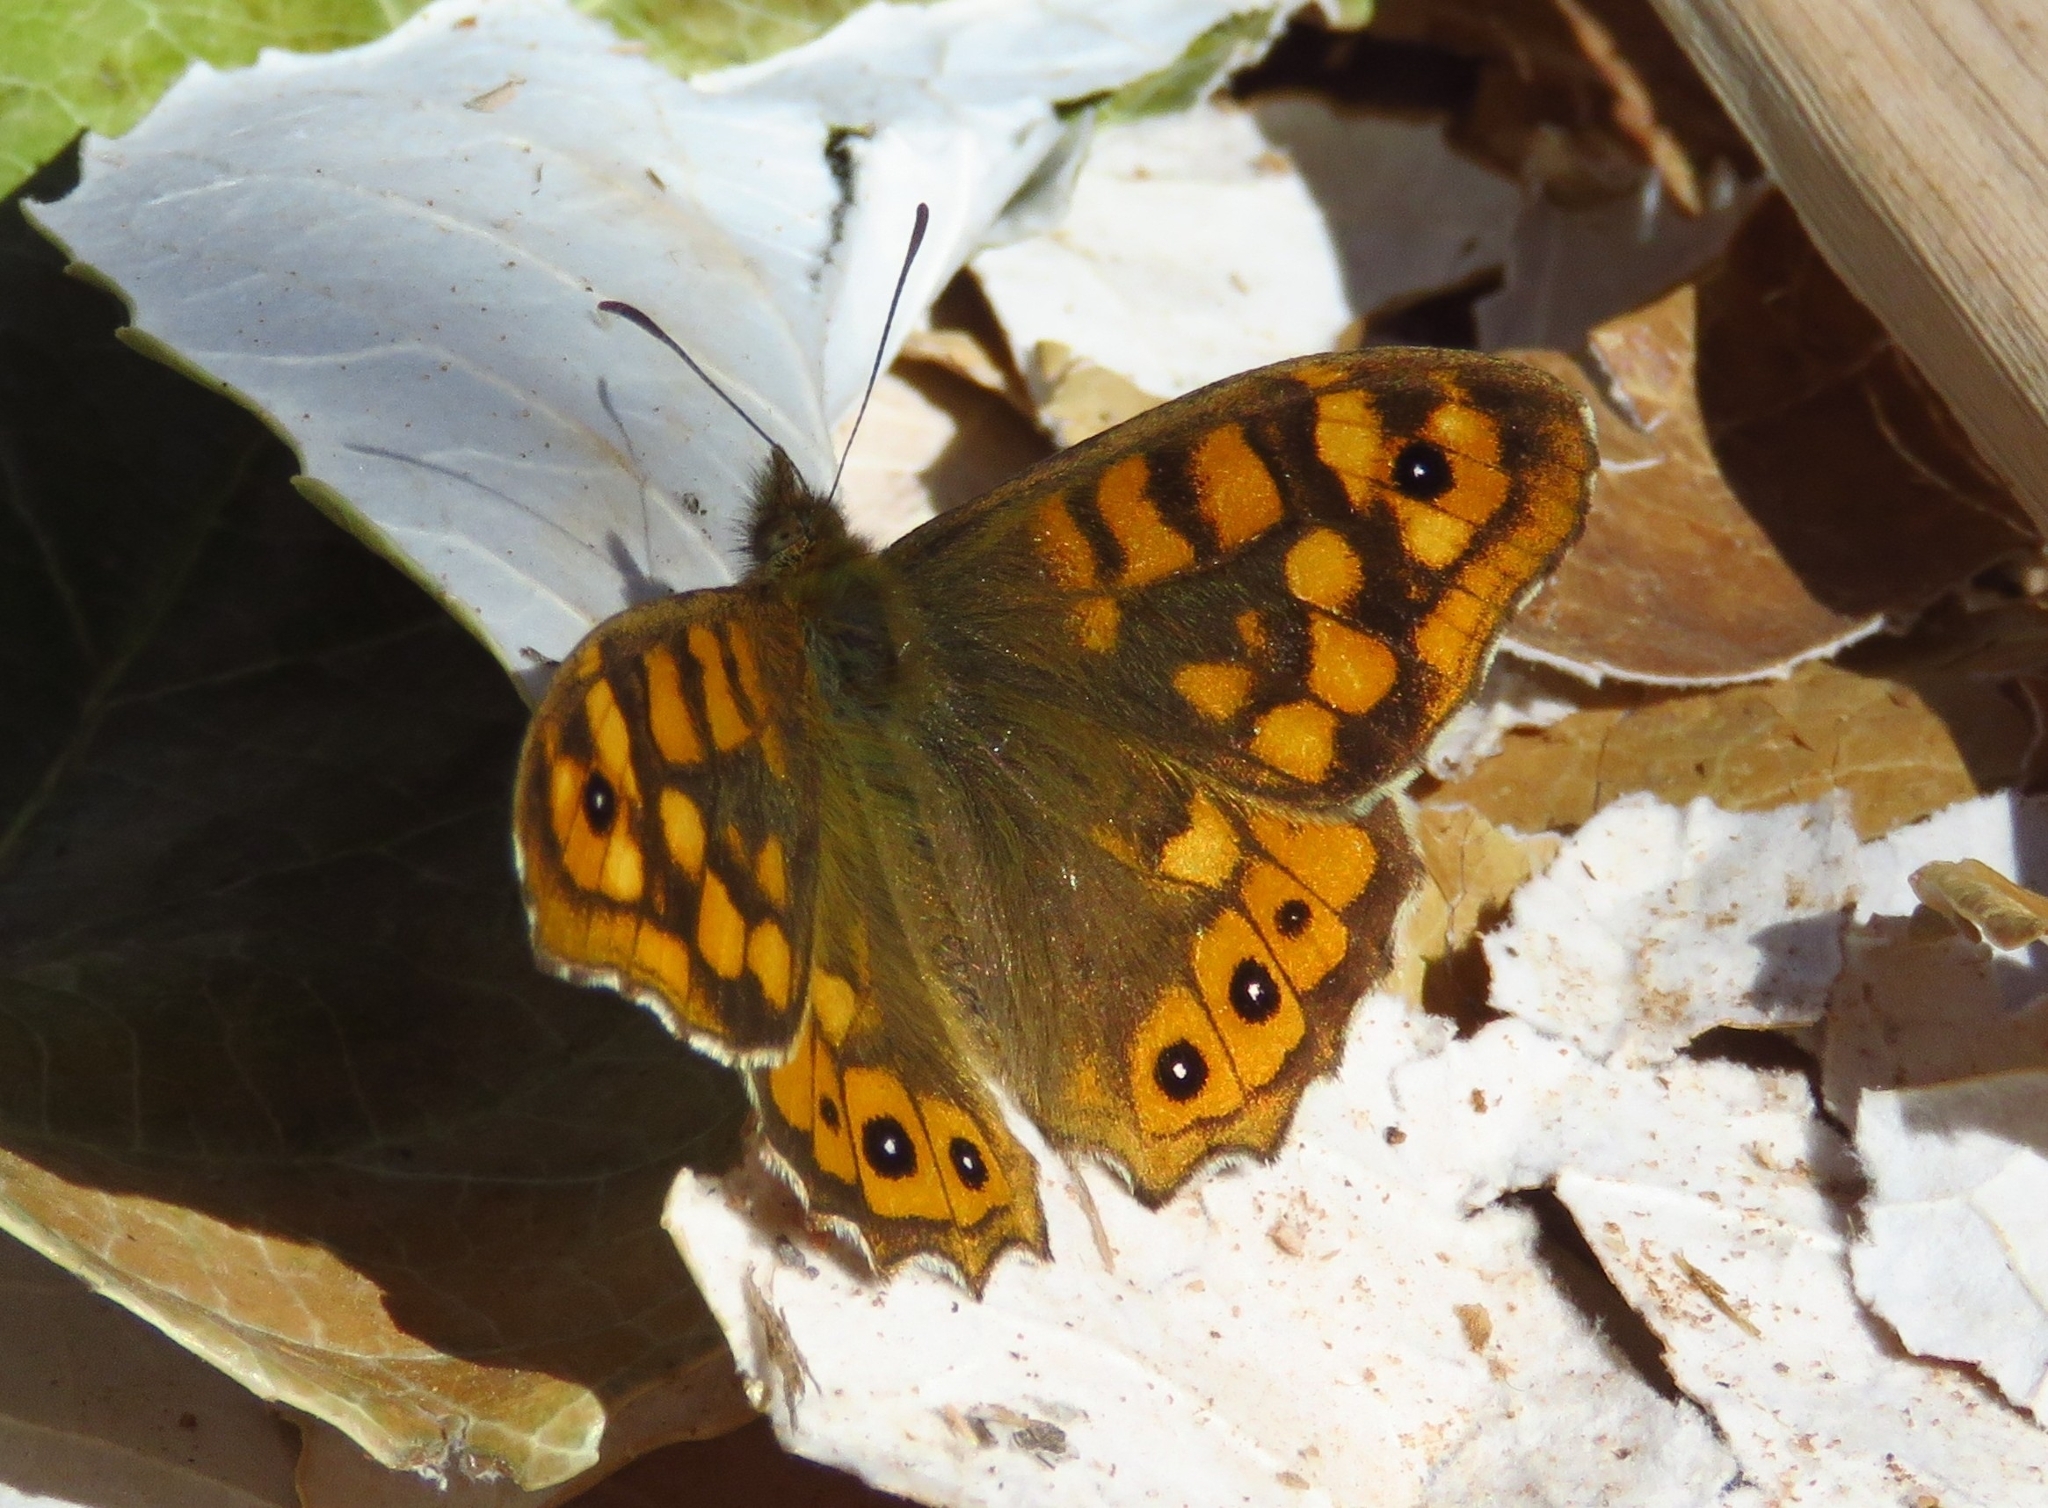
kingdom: Animalia
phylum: Arthropoda
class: Insecta
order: Lepidoptera
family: Nymphalidae
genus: Pararge
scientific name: Pararge aegeria
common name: Speckled wood
